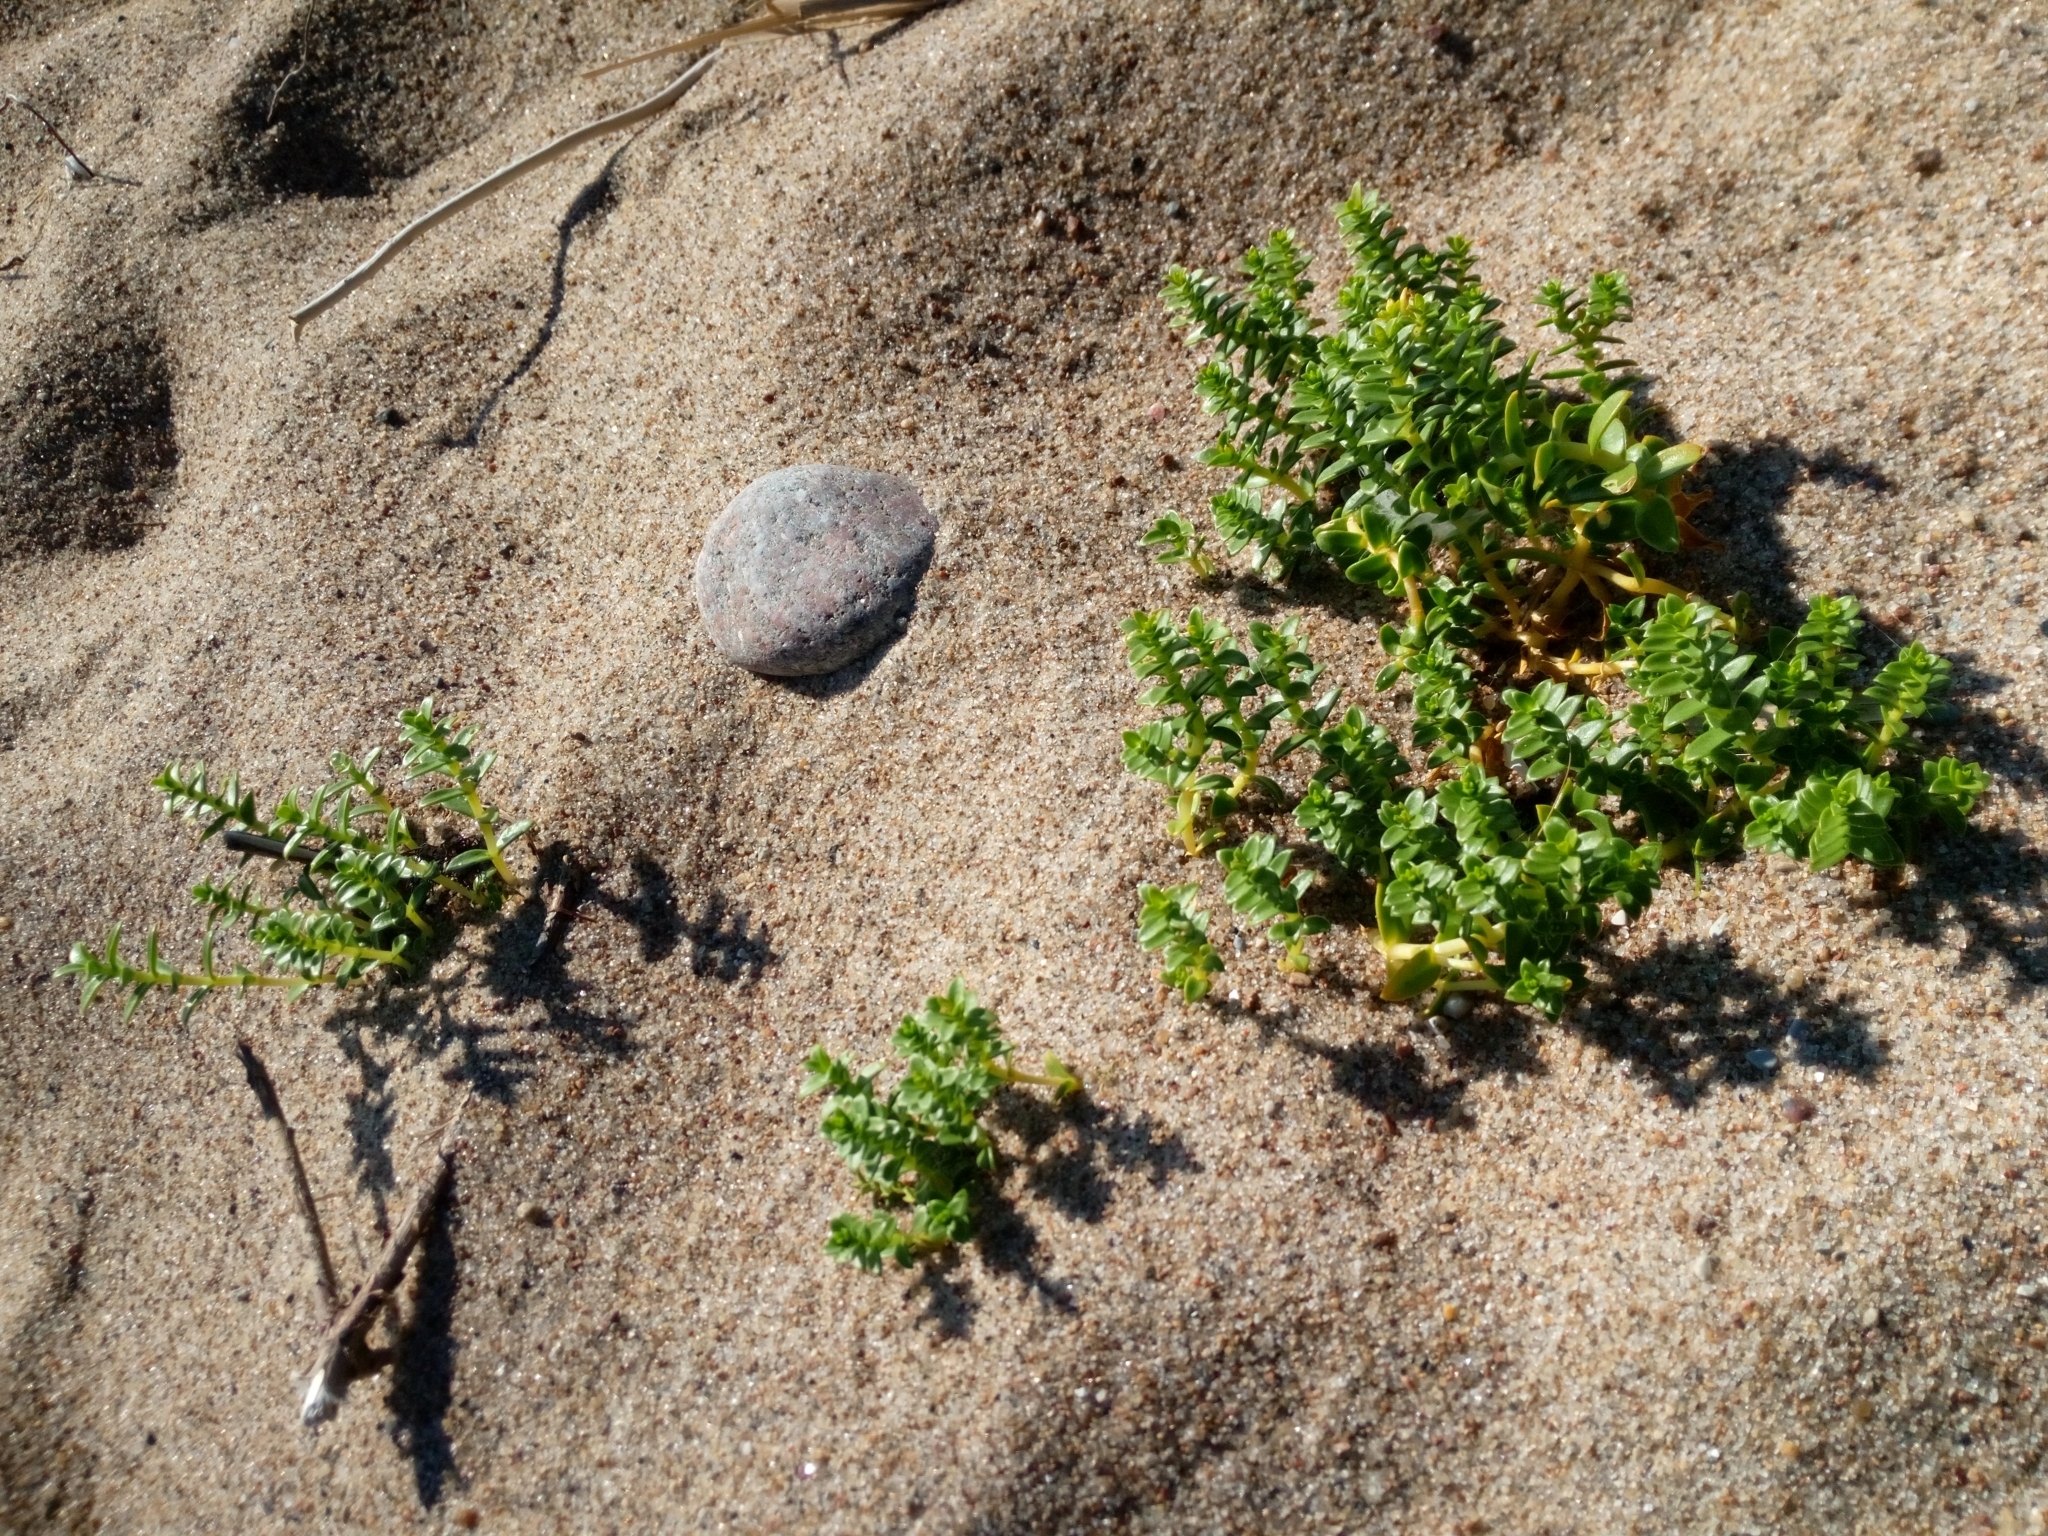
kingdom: Plantae
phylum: Tracheophyta
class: Magnoliopsida
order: Caryophyllales
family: Caryophyllaceae
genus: Honckenya
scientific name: Honckenya peploides
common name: Sea sandwort
